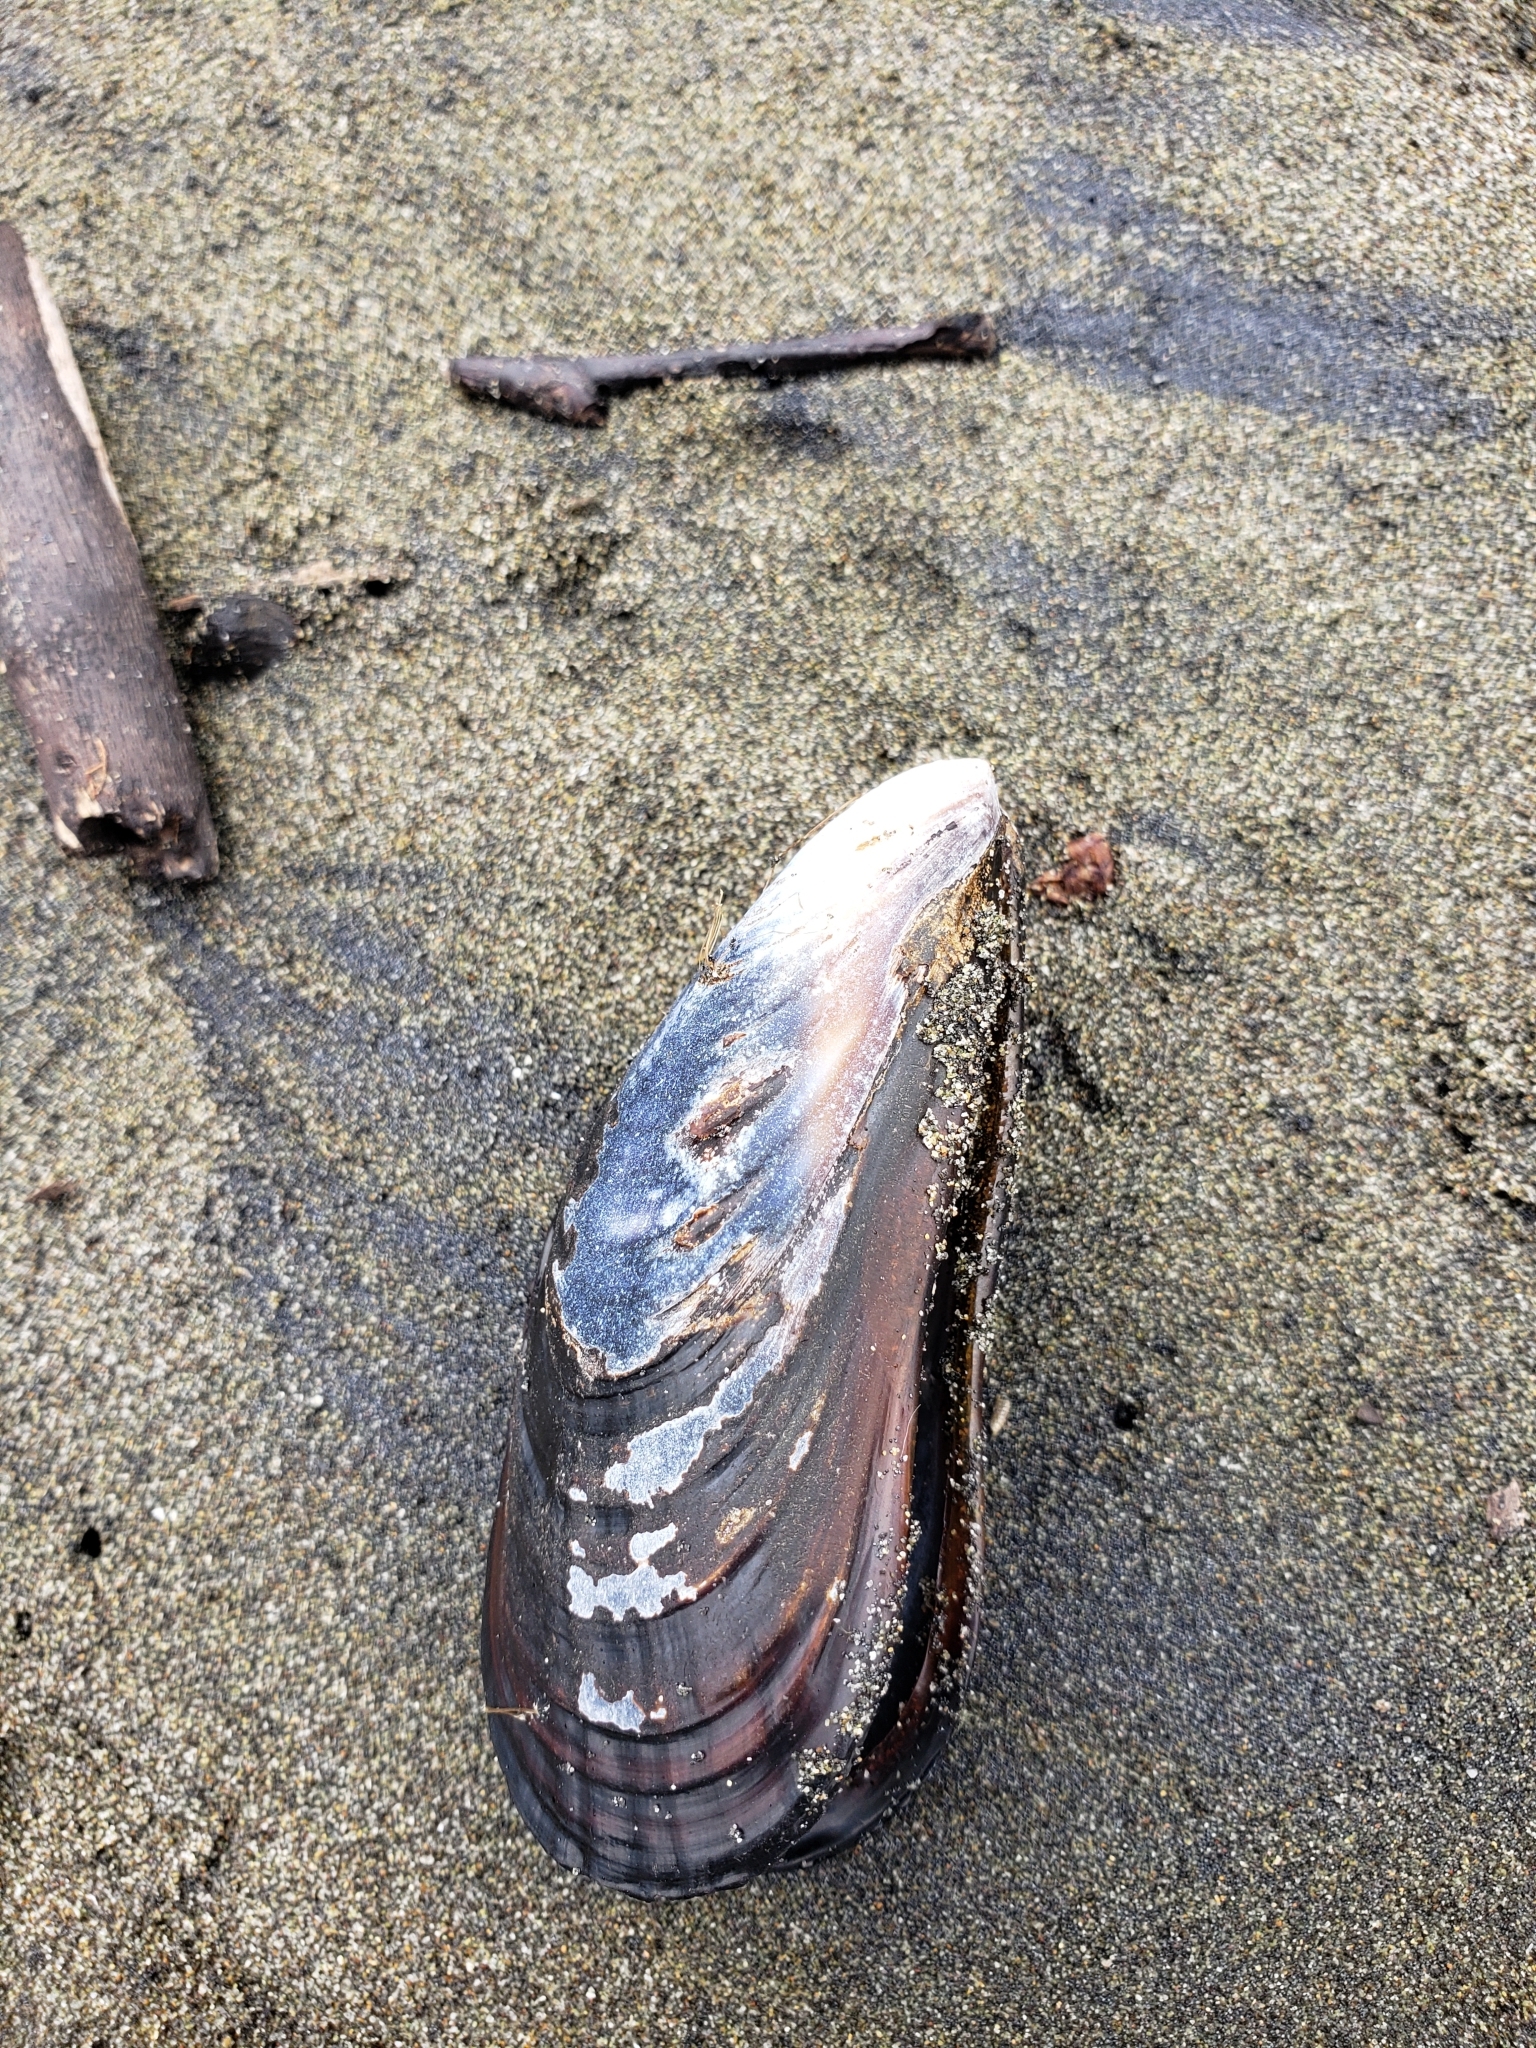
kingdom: Animalia
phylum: Mollusca
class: Bivalvia
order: Mytilida
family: Mytilidae
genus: Mytilus
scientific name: Mytilus californianus
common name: California mussel
